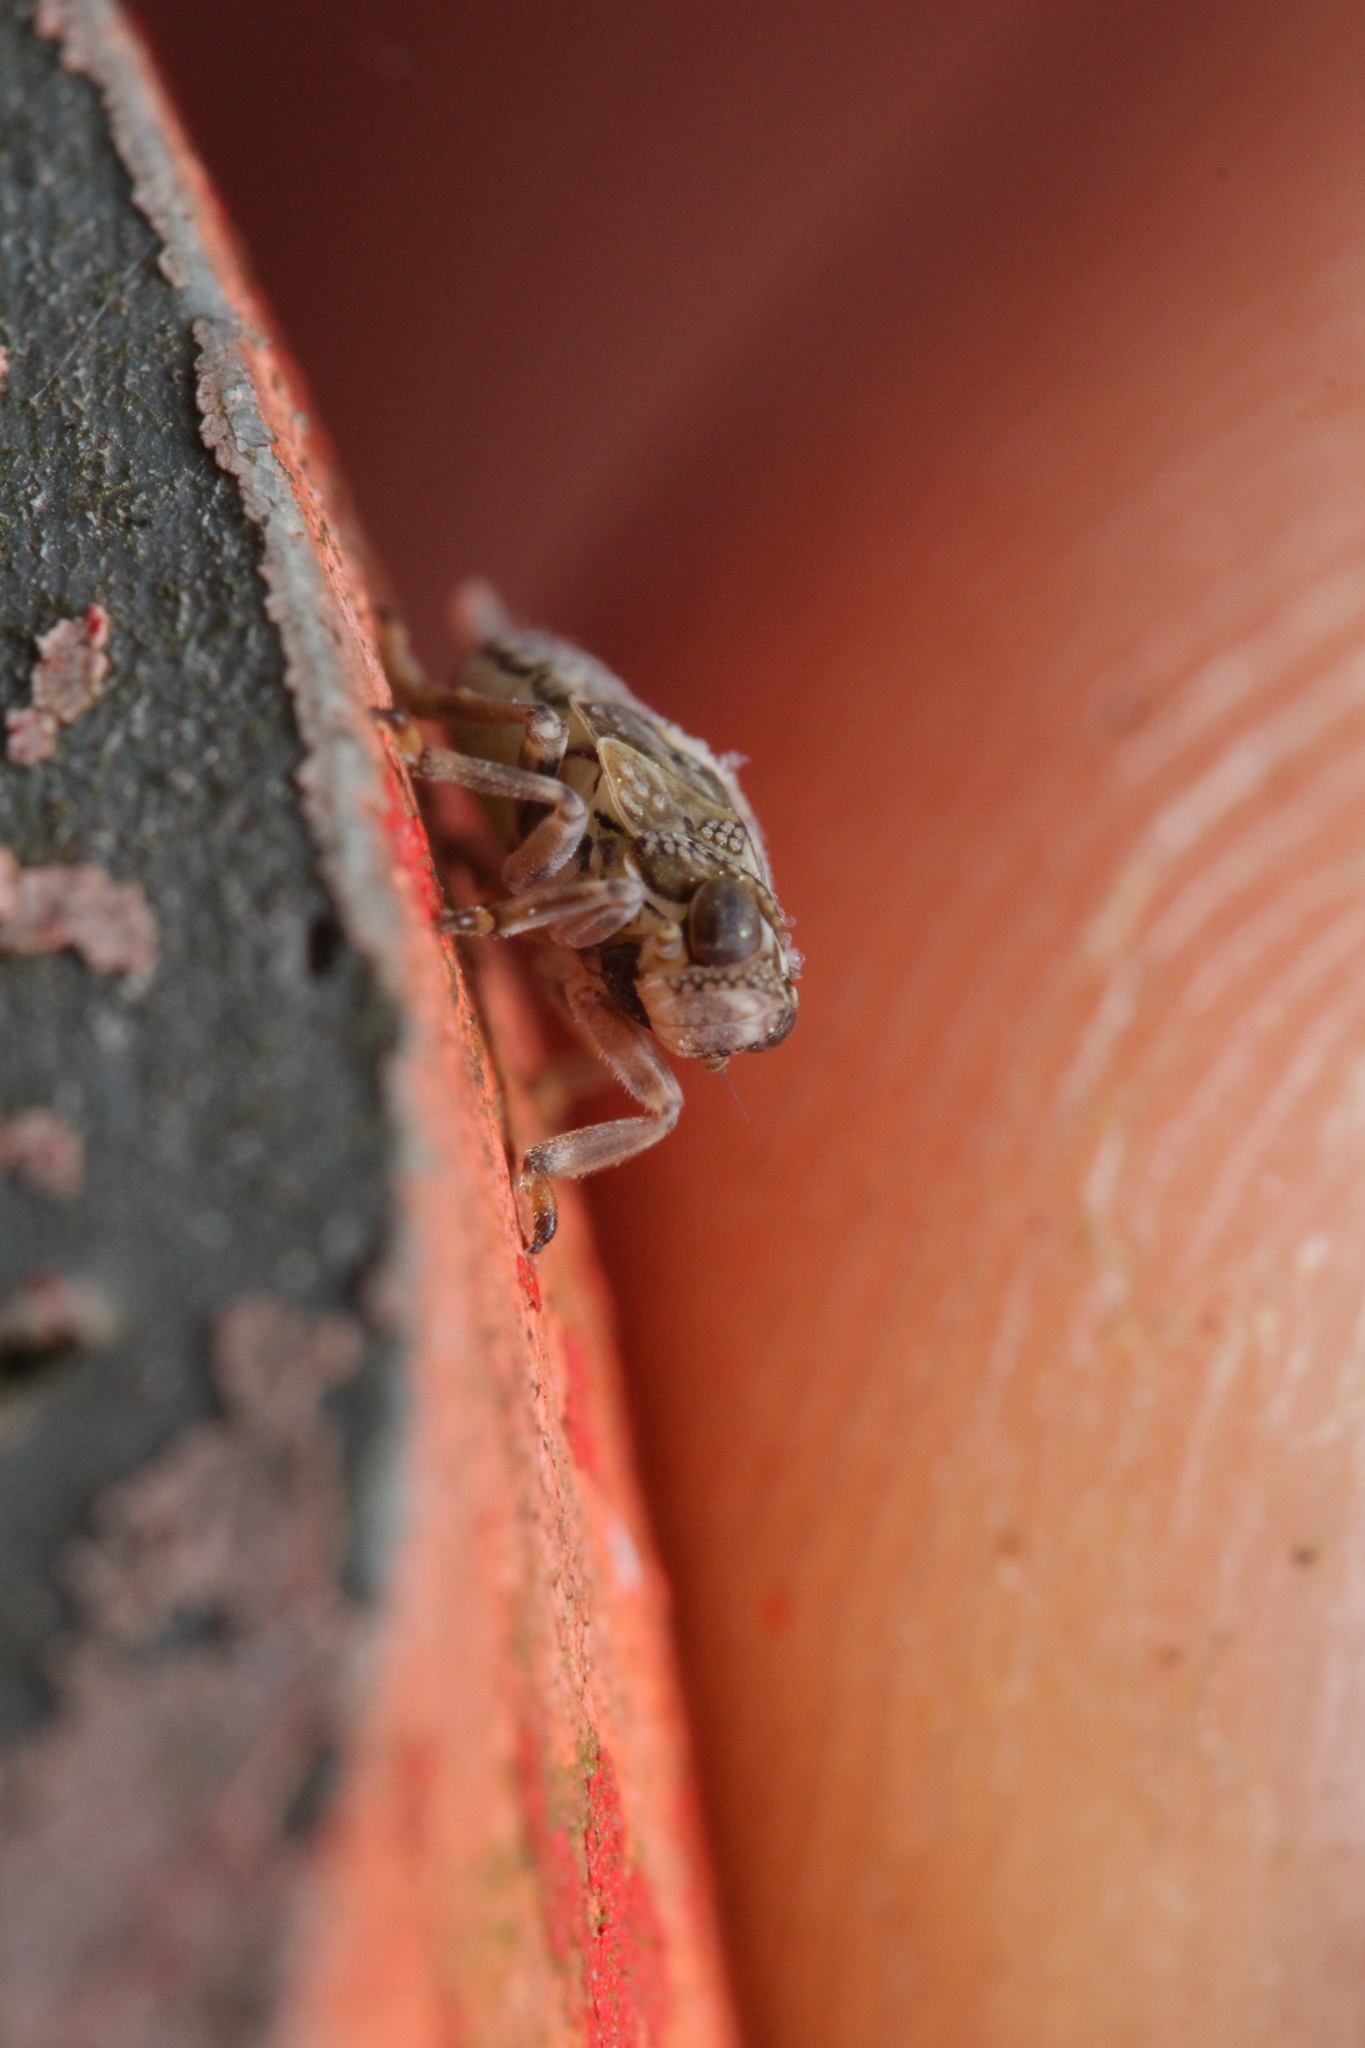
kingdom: Animalia
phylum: Arthropoda
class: Insecta
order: Hemiptera
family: Issidae
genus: Issus
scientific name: Issus coleoptratus
